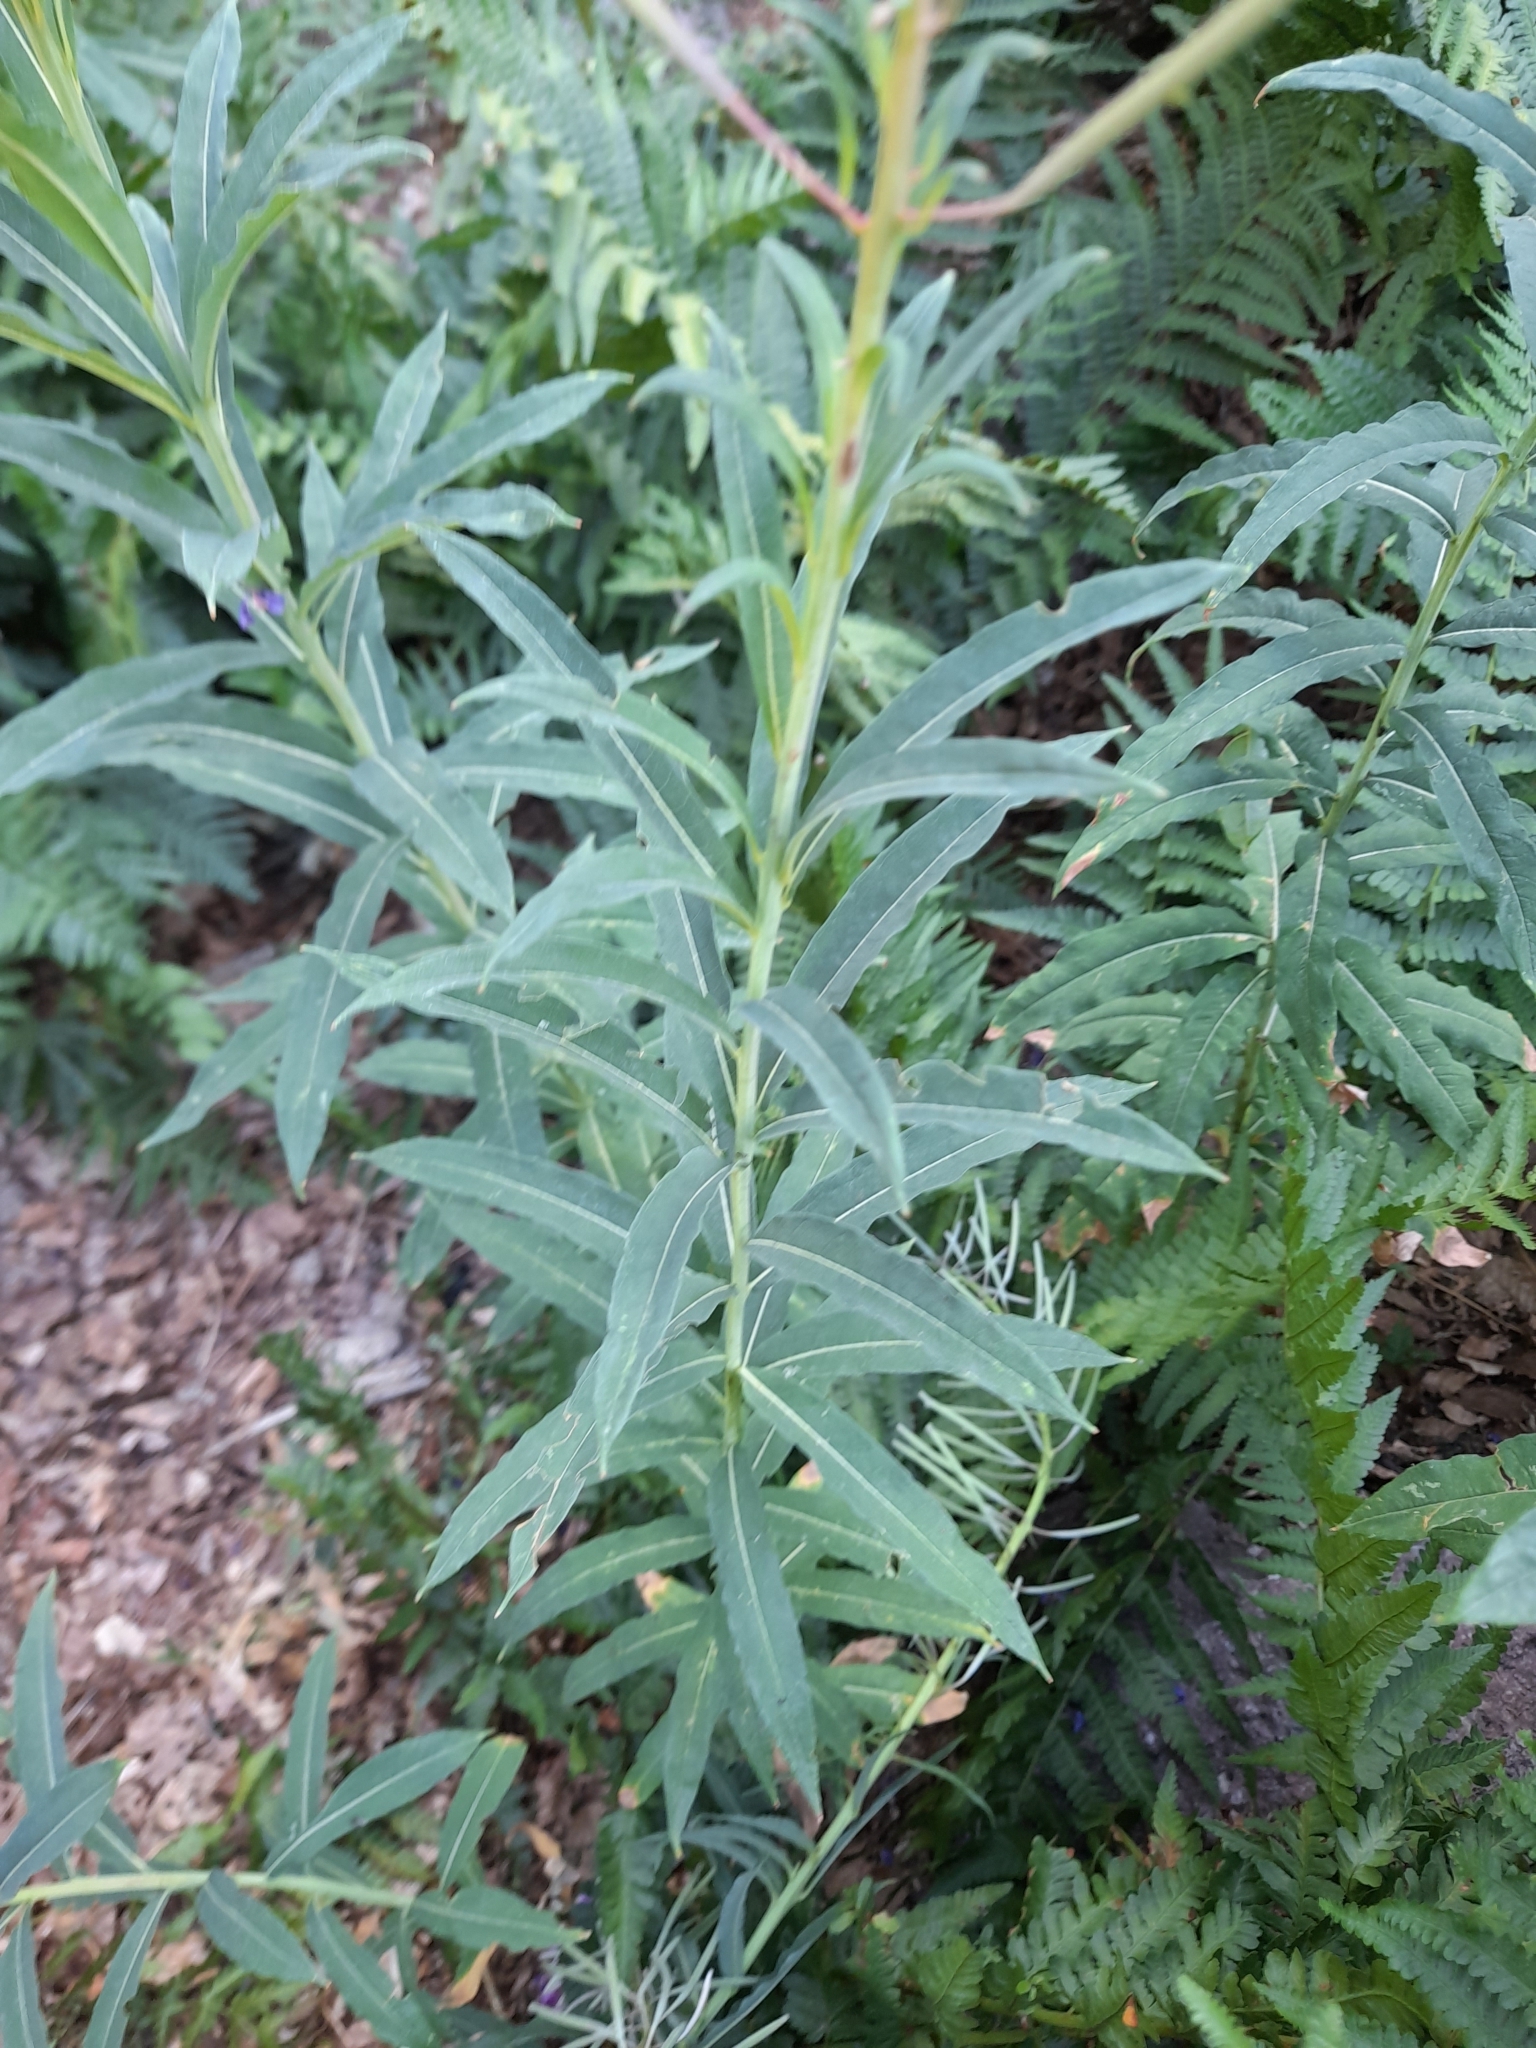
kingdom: Plantae
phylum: Tracheophyta
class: Magnoliopsida
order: Myrtales
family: Onagraceae
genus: Chamaenerion
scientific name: Chamaenerion angustifolium
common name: Fireweed
